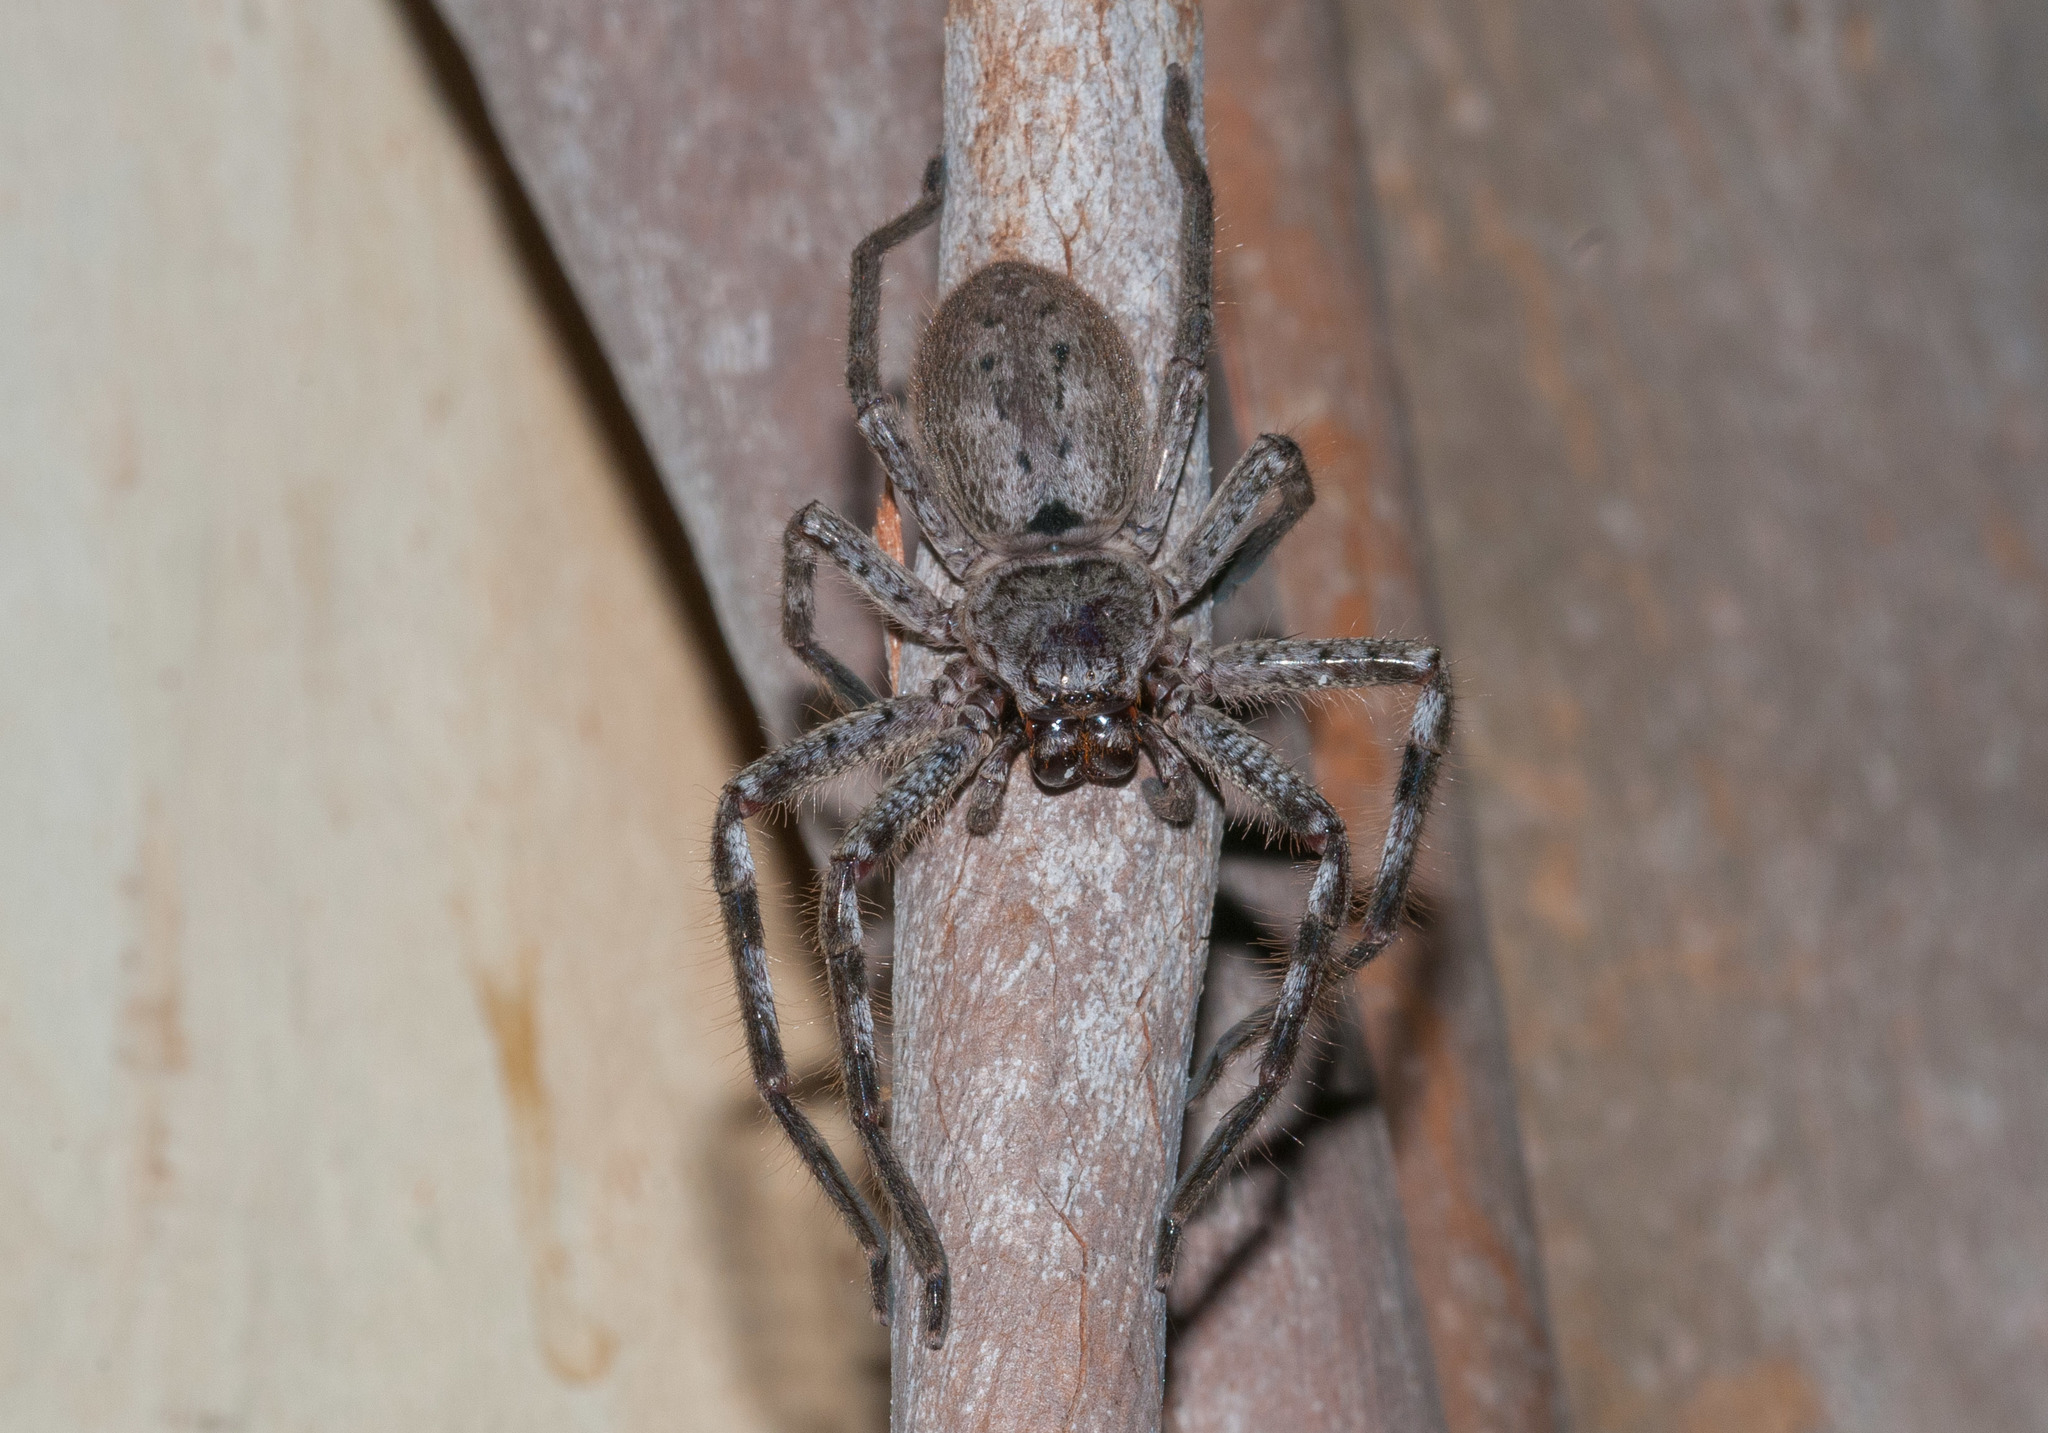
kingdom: Animalia
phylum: Arthropoda
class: Arachnida
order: Araneae
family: Sparassidae
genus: Isopeda
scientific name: Isopeda montana
